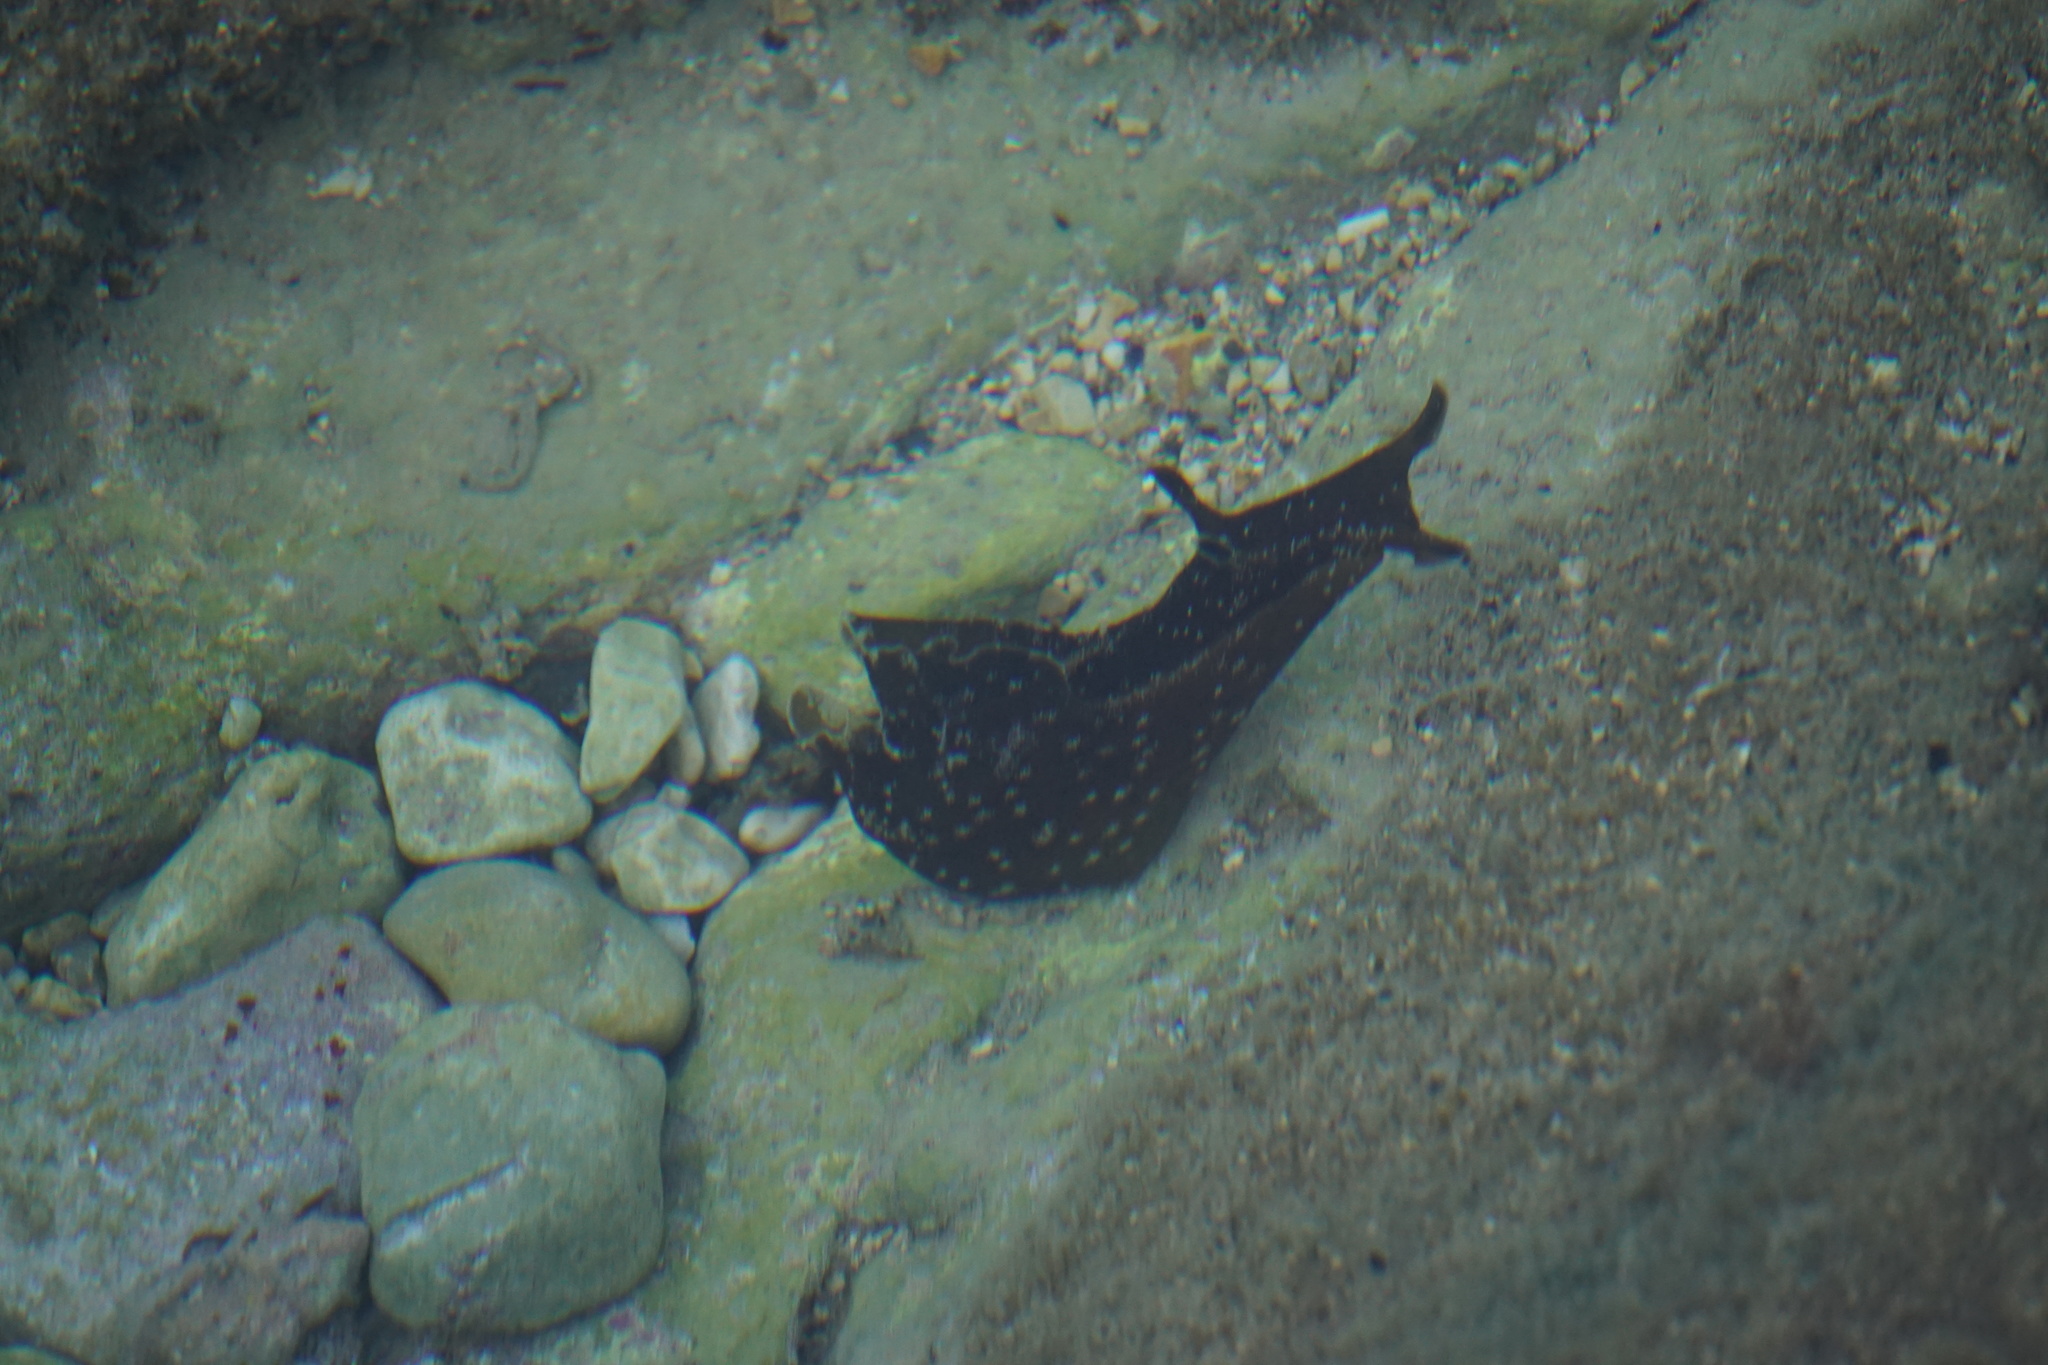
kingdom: Animalia
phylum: Mollusca
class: Gastropoda
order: Aplysiida
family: Aplysiidae
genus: Aplysia
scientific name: Aplysia punctata
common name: Common sea hare
